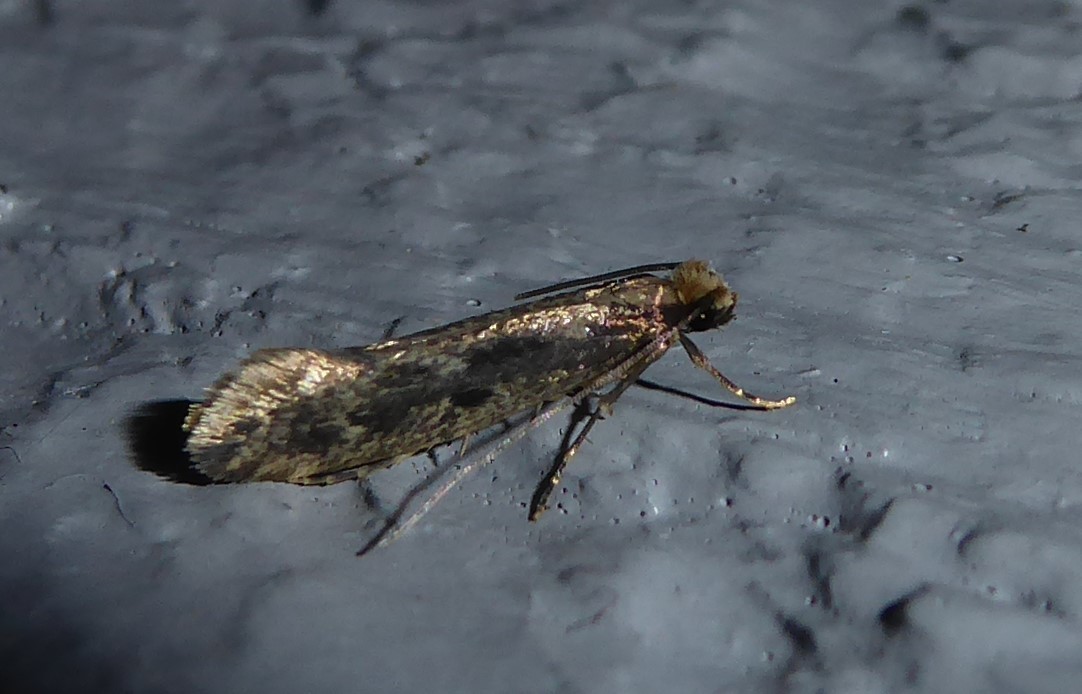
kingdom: Animalia
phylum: Arthropoda
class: Insecta
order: Lepidoptera
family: Tineidae
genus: Tinea
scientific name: Tinea pallescentella
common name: Large pale clothes moth
